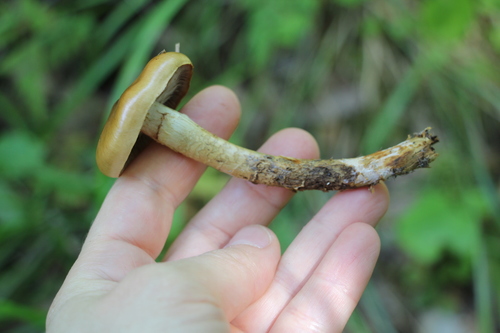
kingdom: Fungi
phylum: Basidiomycota
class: Agaricomycetes
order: Agaricales
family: Cortinariaceae
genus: Cortinarius
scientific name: Cortinarius trivialis
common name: Girdled webcap
